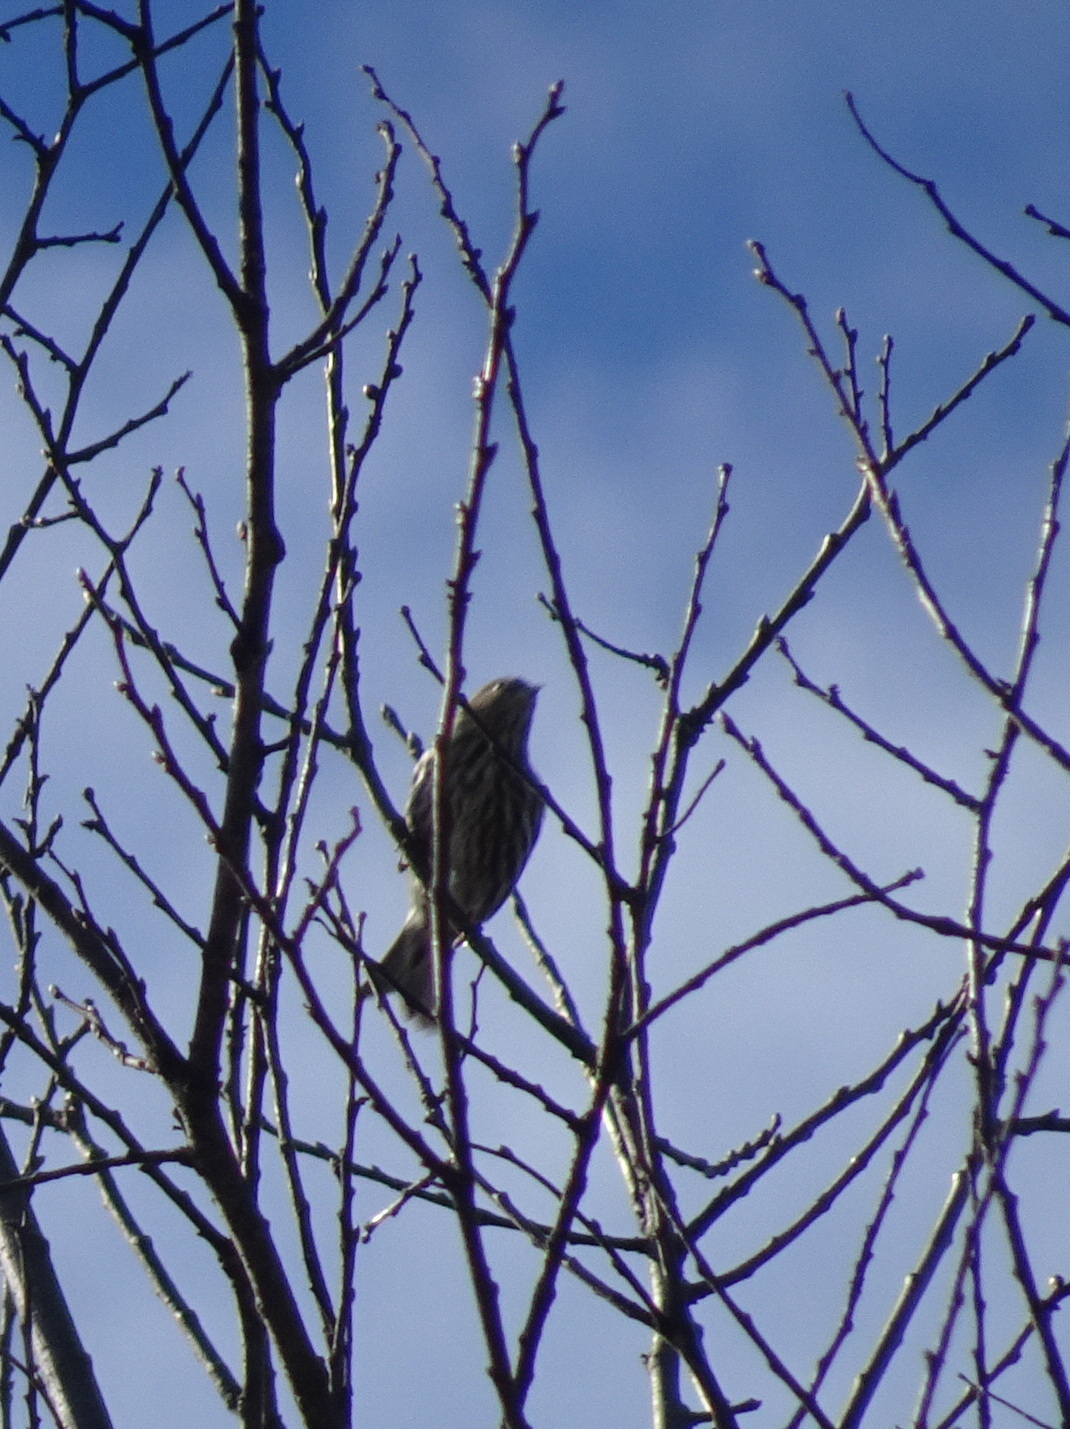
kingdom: Animalia
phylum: Chordata
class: Aves
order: Passeriformes
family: Fringillidae
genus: Spinus
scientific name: Spinus pinus
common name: Pine siskin
